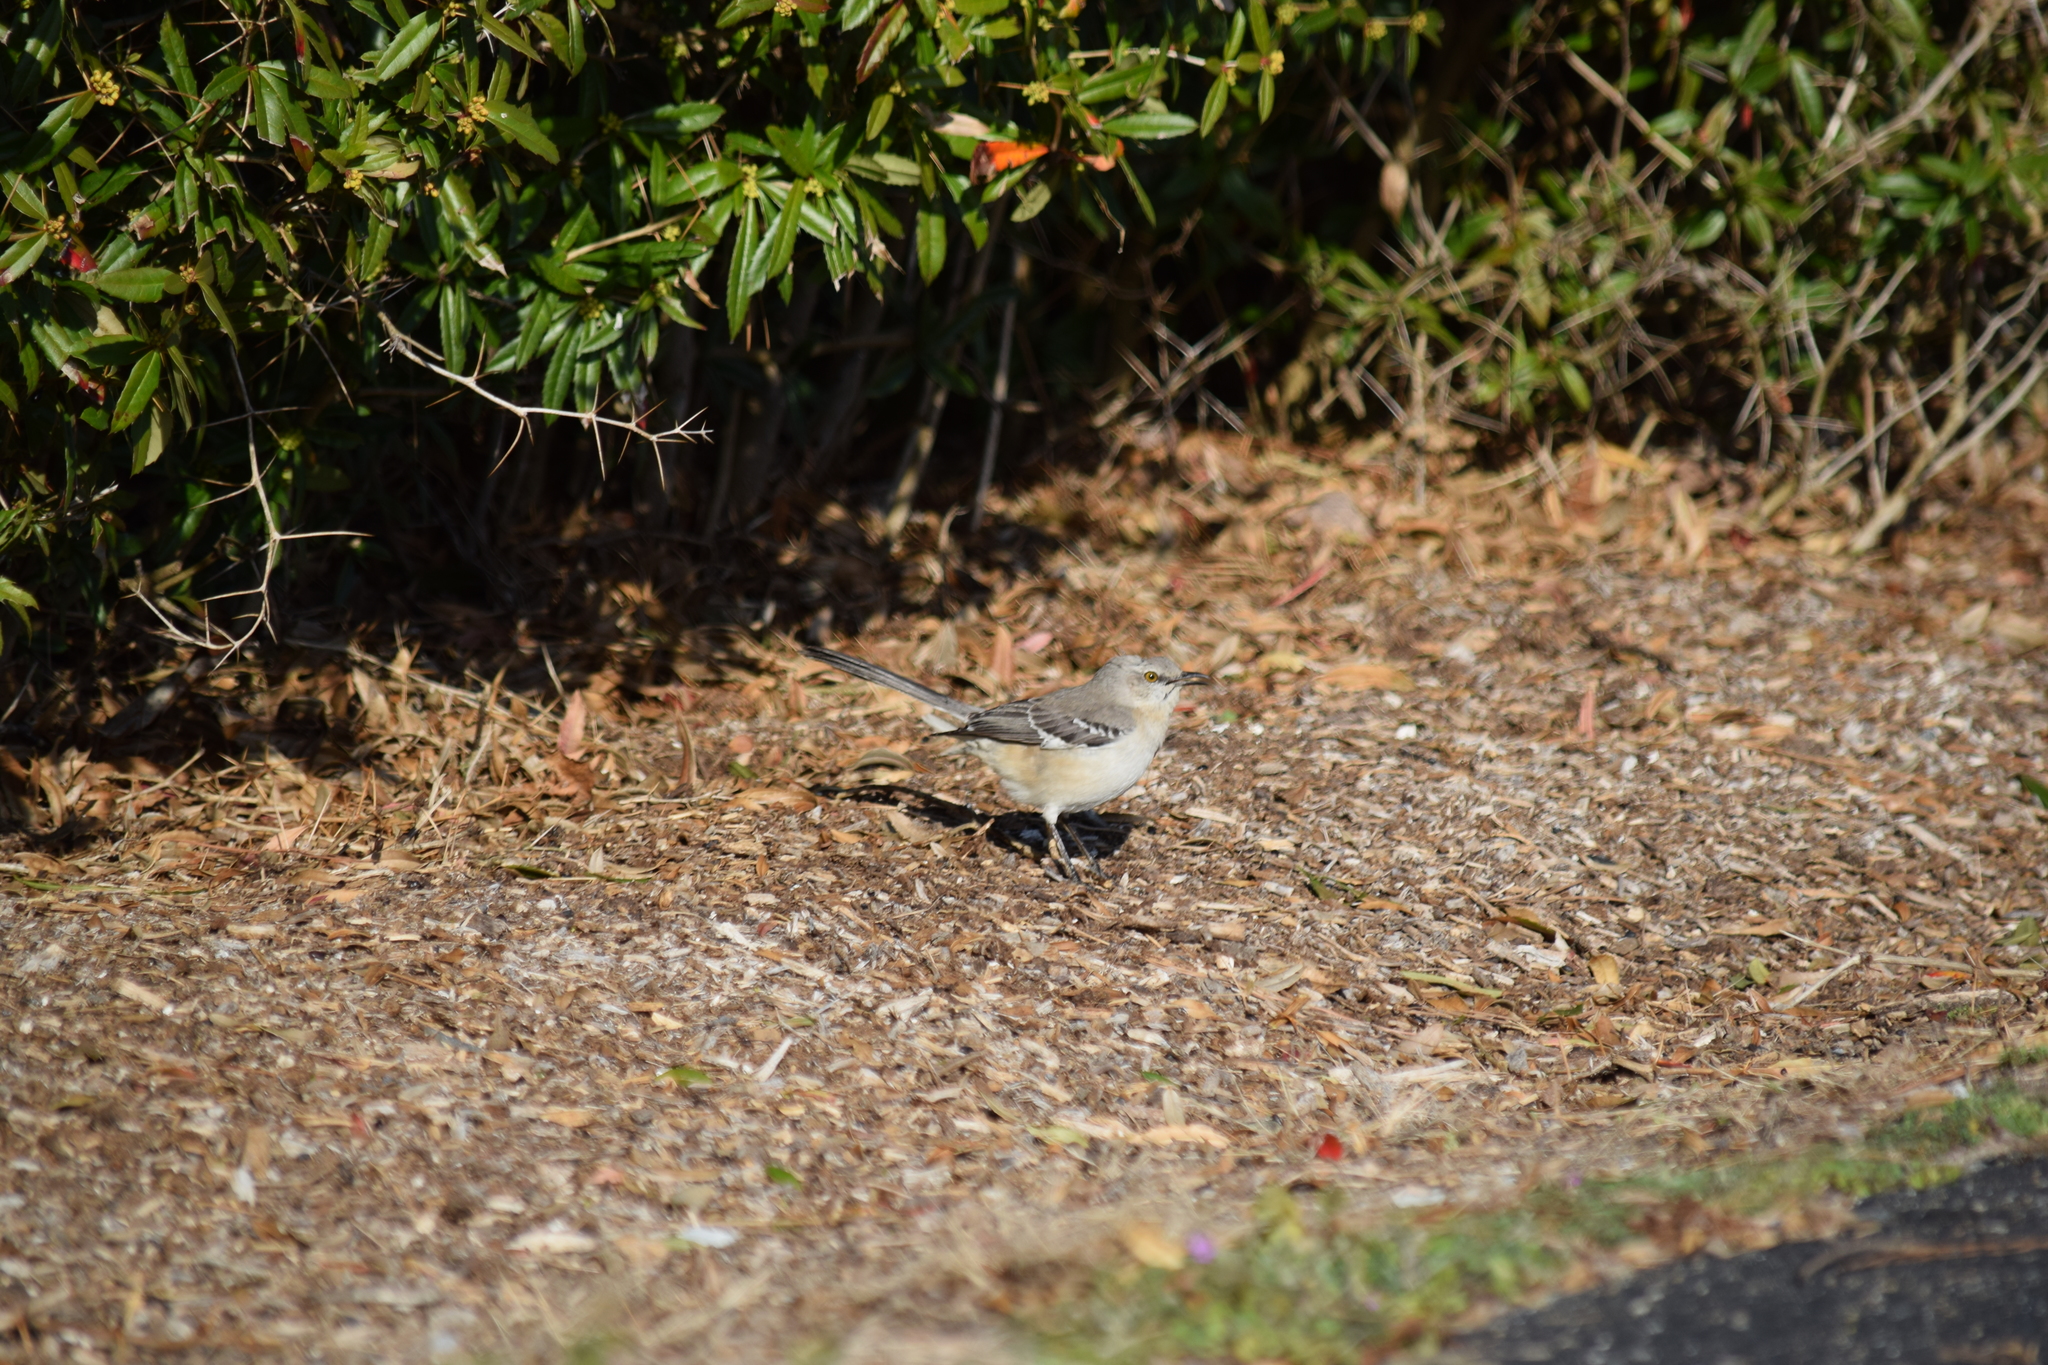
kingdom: Animalia
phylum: Chordata
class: Aves
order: Passeriformes
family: Mimidae
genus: Mimus
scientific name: Mimus polyglottos
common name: Northern mockingbird
